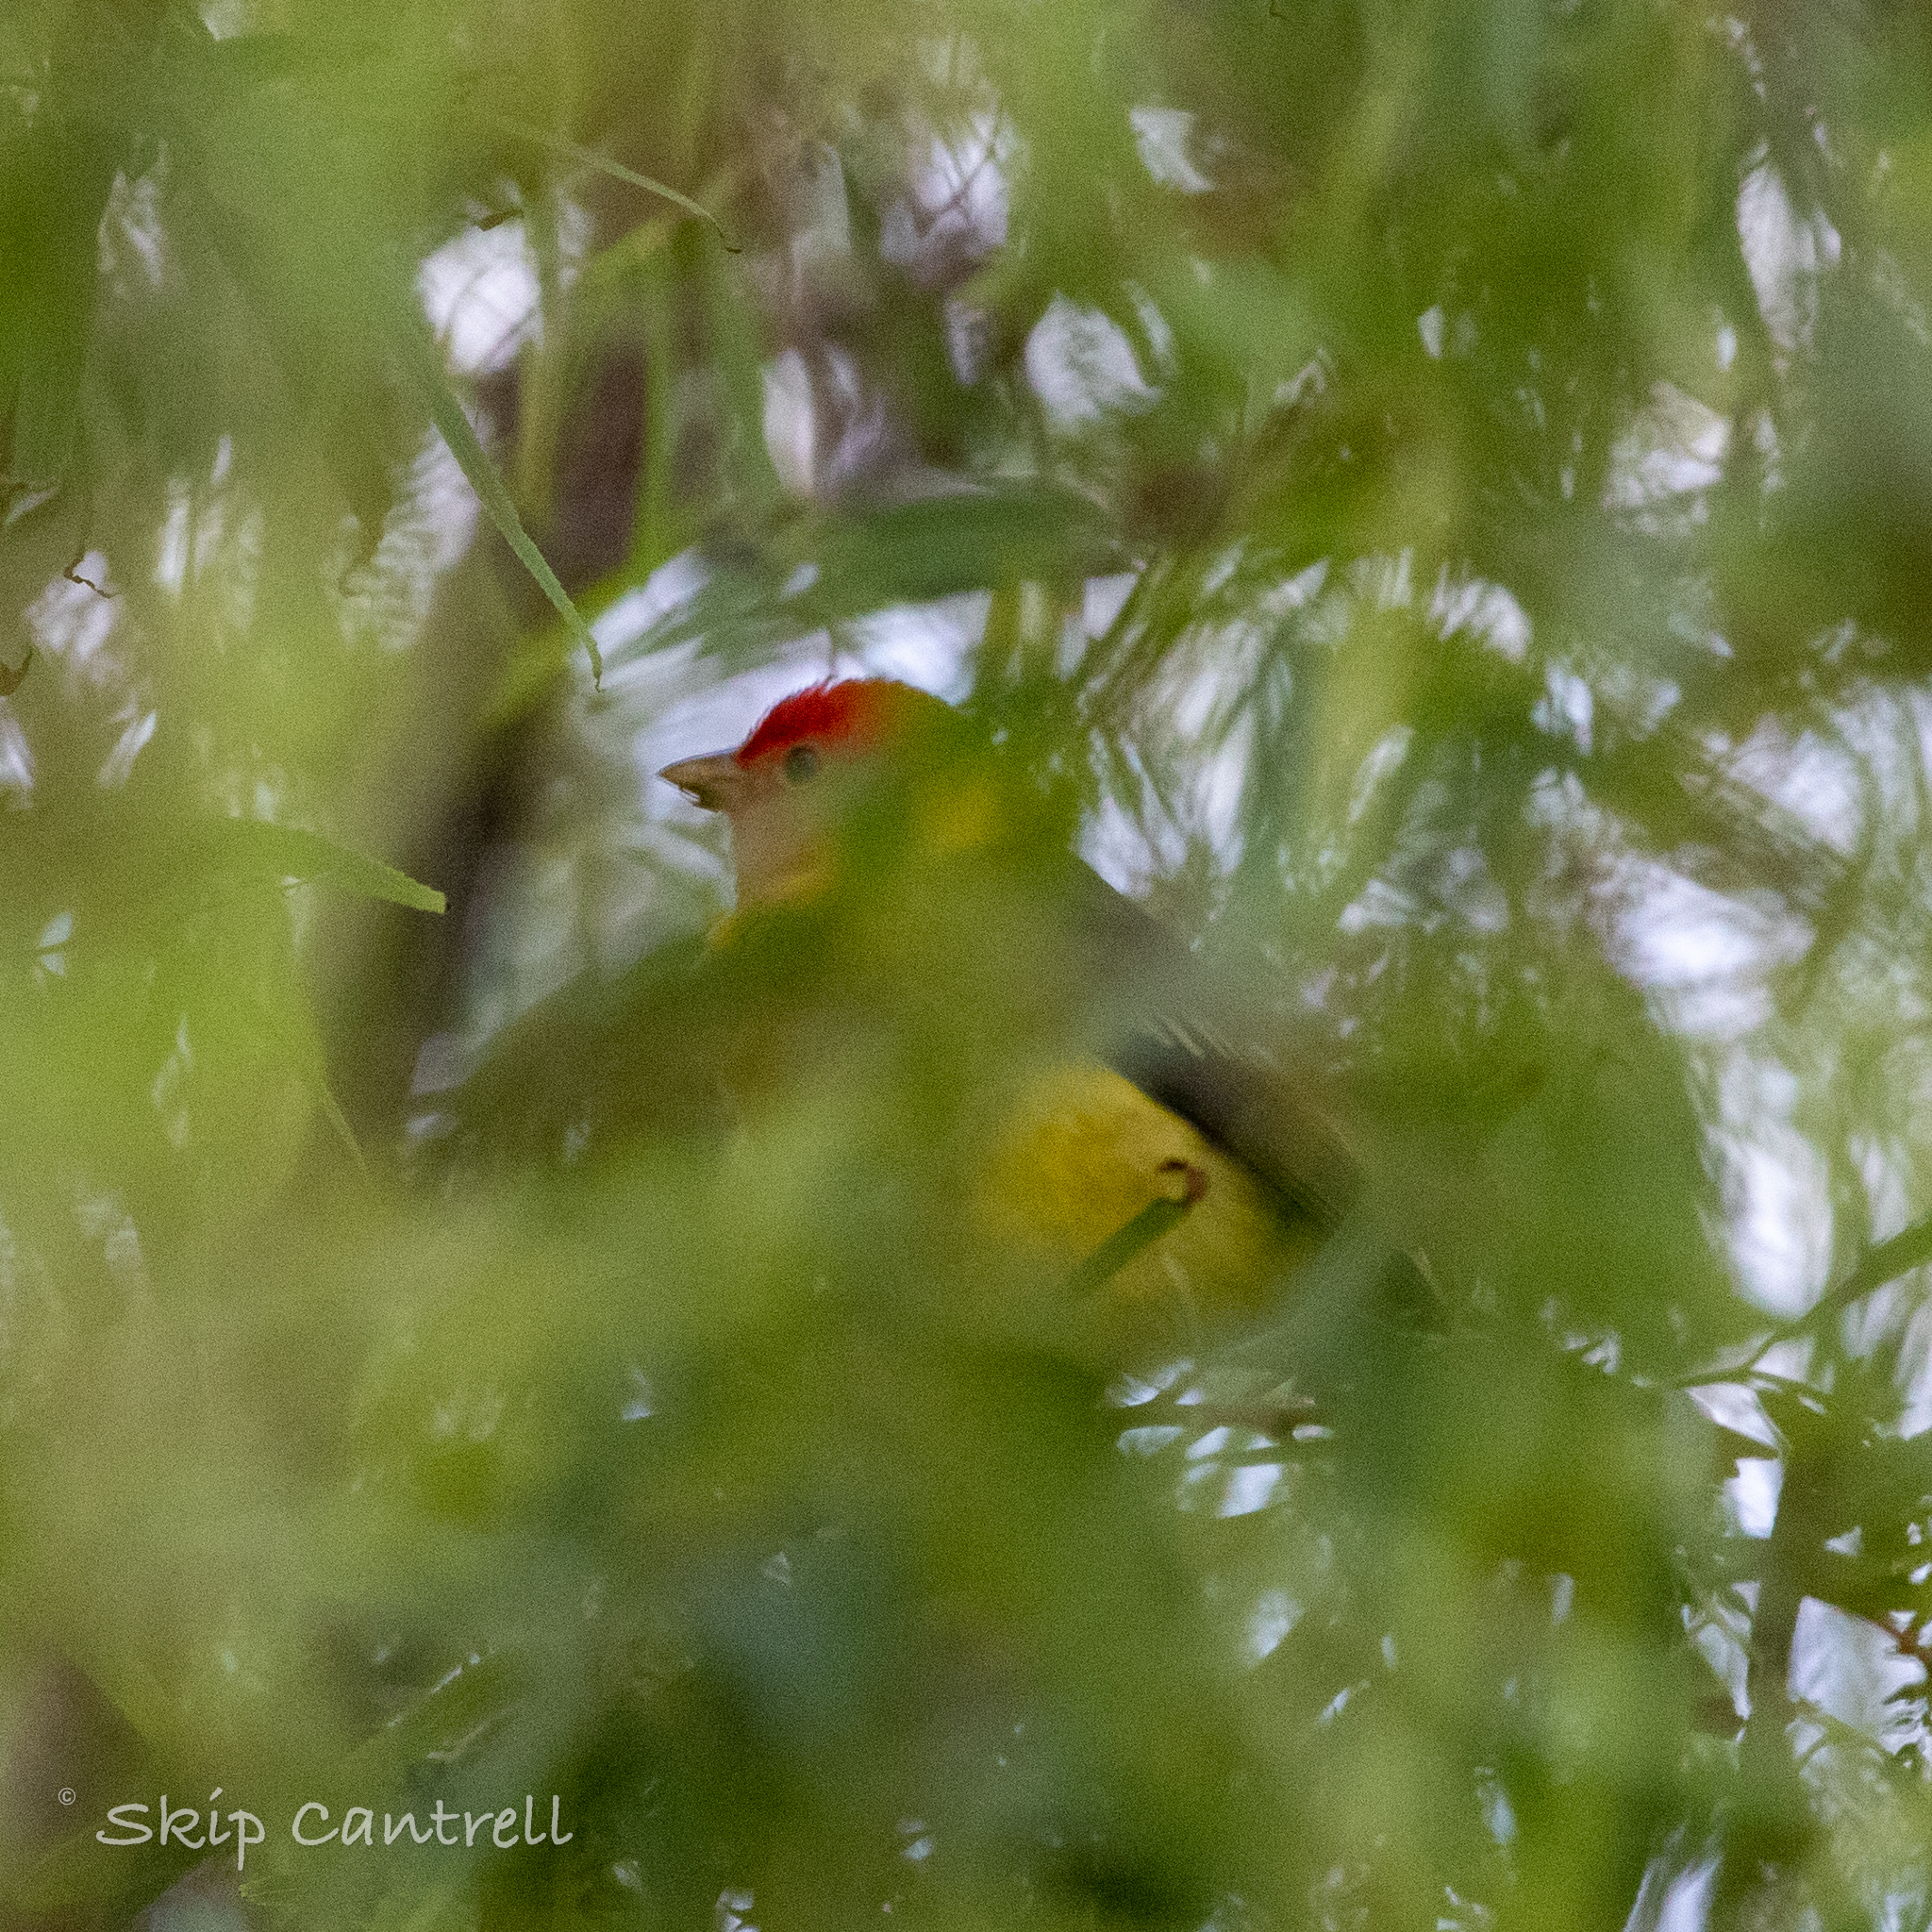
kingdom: Animalia
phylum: Chordata
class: Aves
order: Passeriformes
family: Cardinalidae
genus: Piranga
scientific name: Piranga ludoviciana
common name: Western tanager
